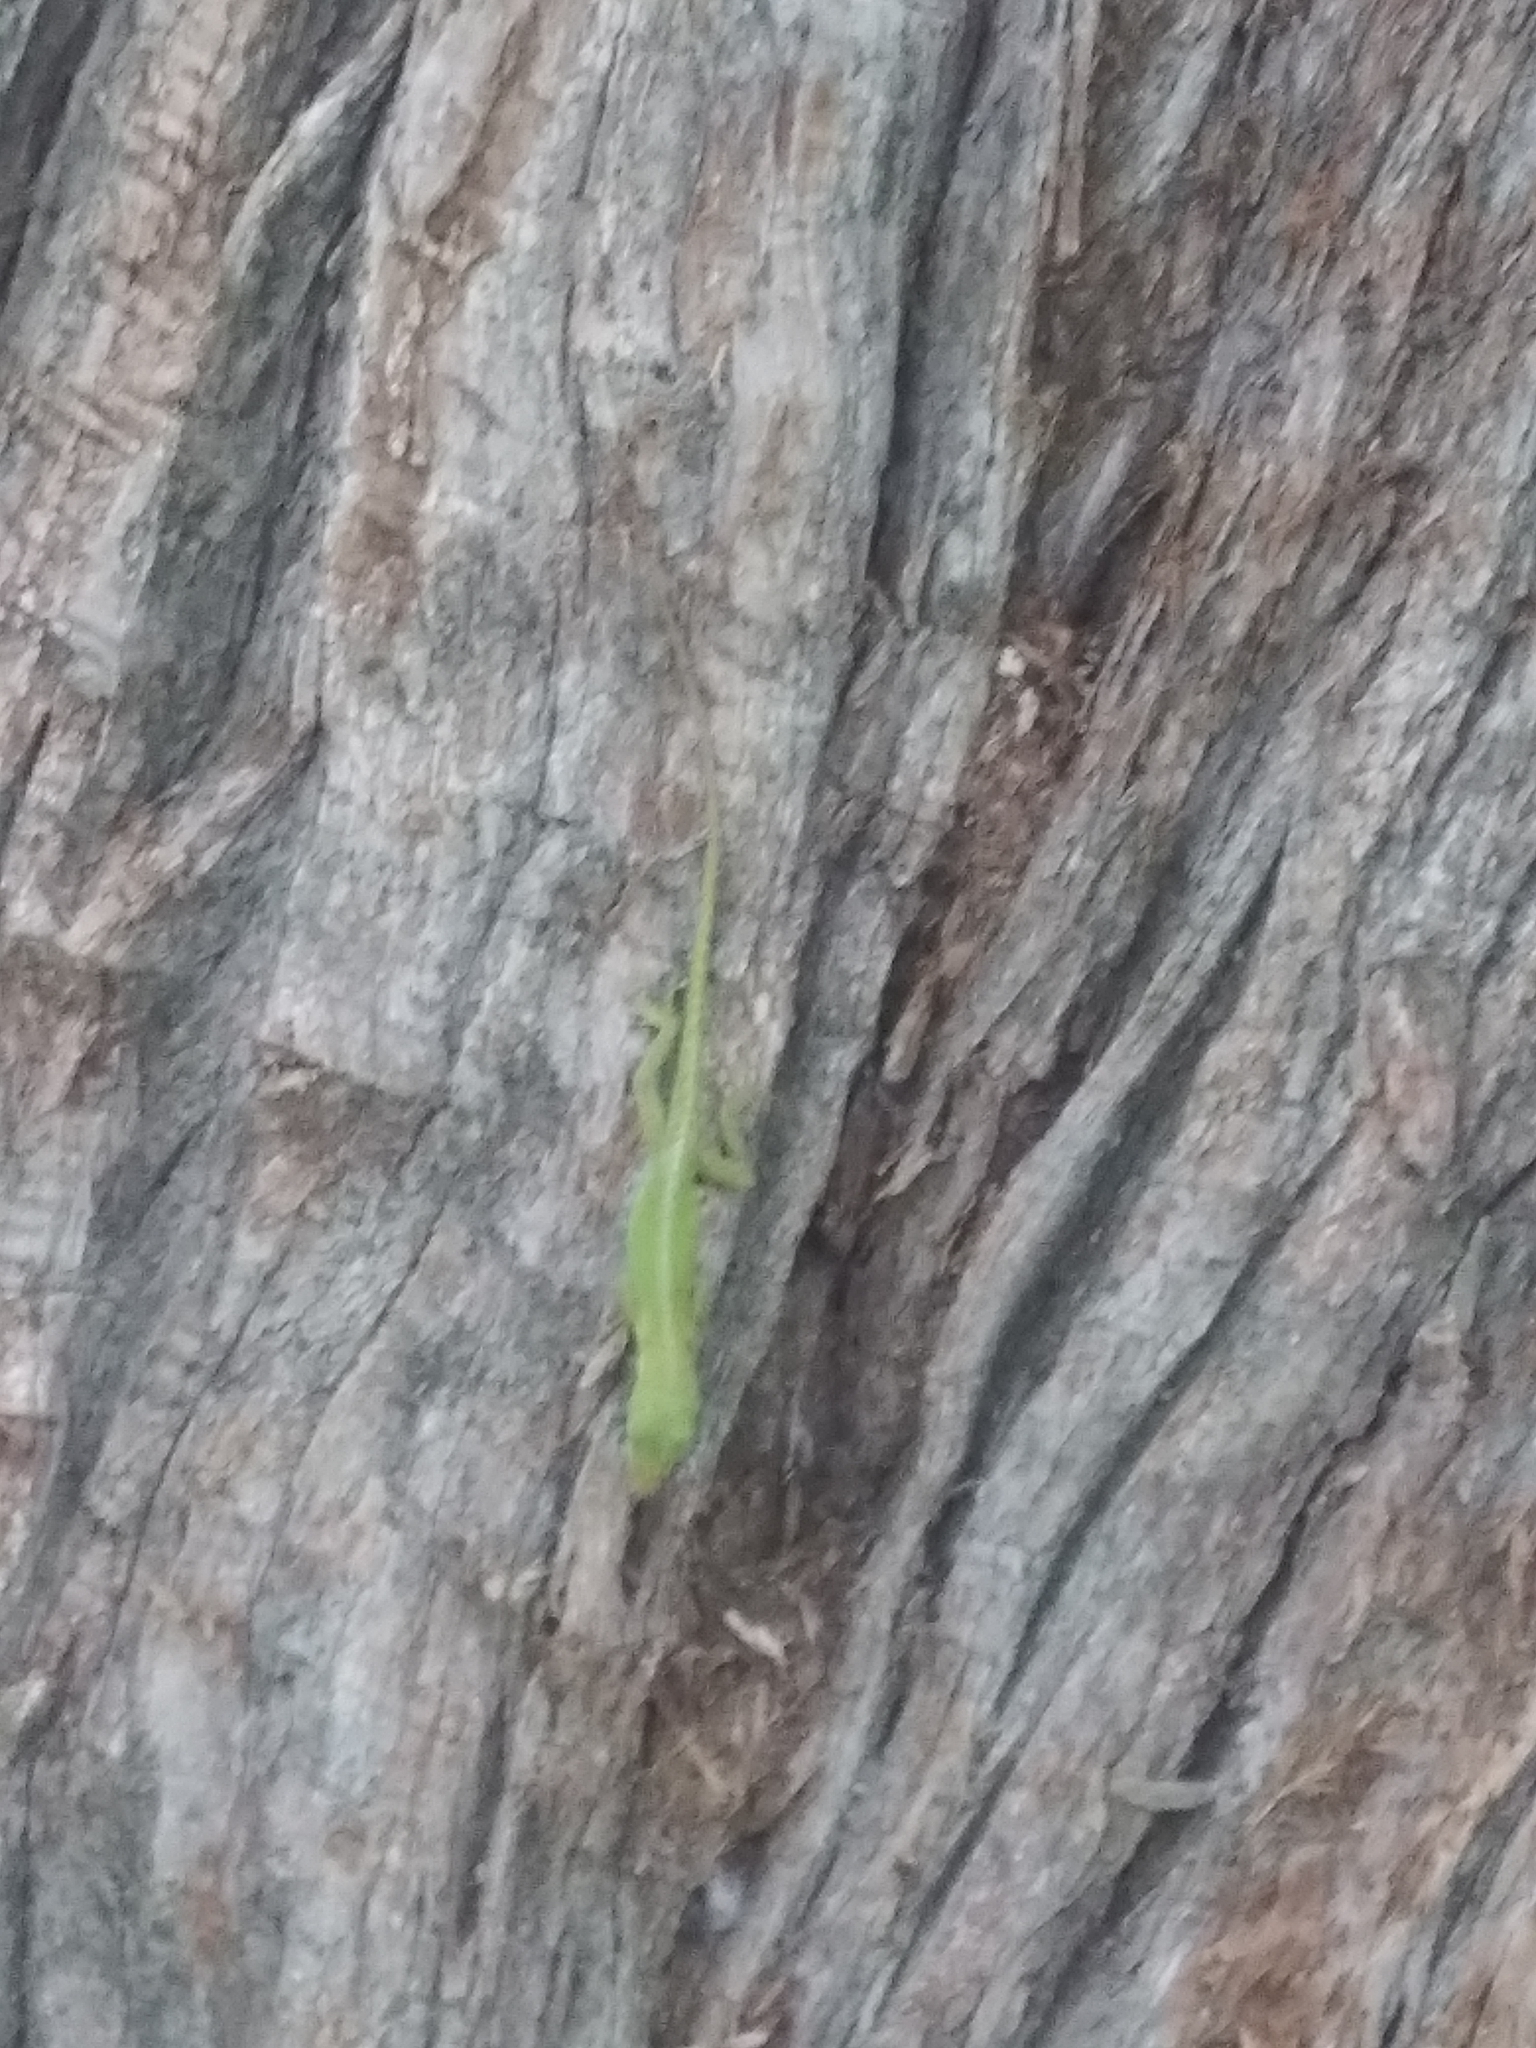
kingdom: Animalia
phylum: Chordata
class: Squamata
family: Dactyloidae
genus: Anolis
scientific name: Anolis carolinensis
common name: Green anole
